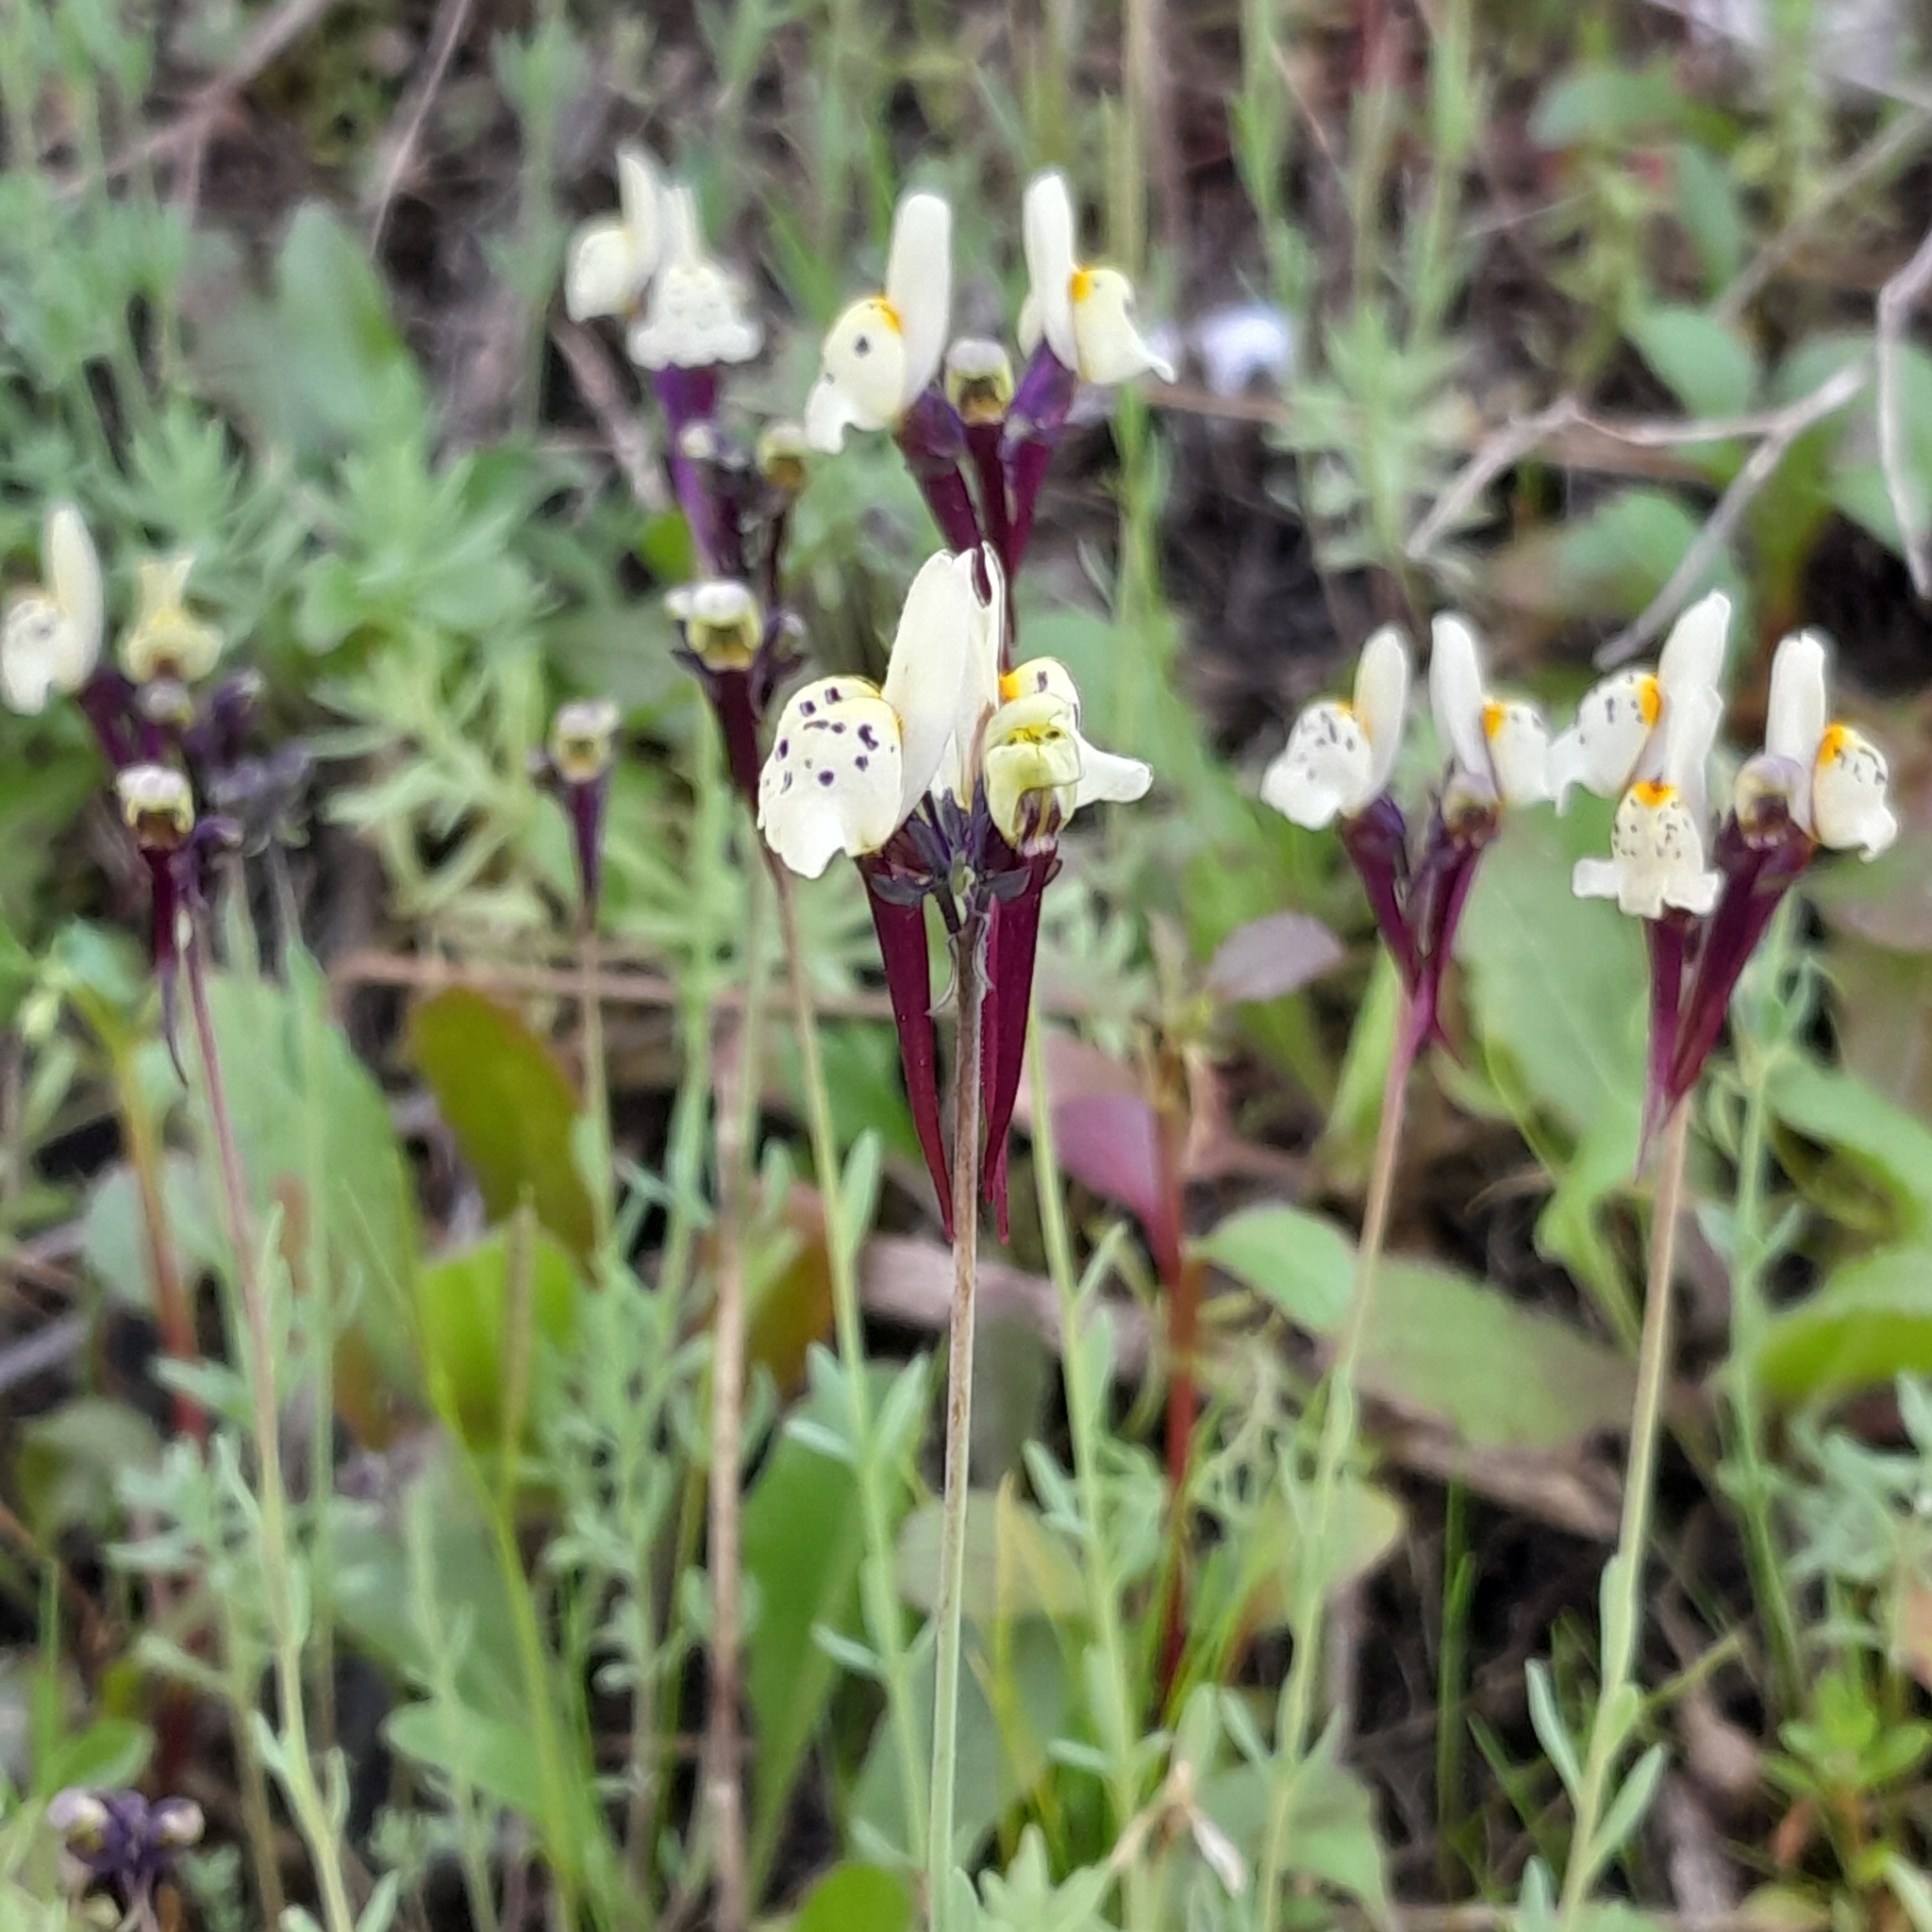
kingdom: Plantae
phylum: Tracheophyta
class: Magnoliopsida
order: Lamiales
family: Plantaginaceae
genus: Linaria
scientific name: Linaria amethystea
